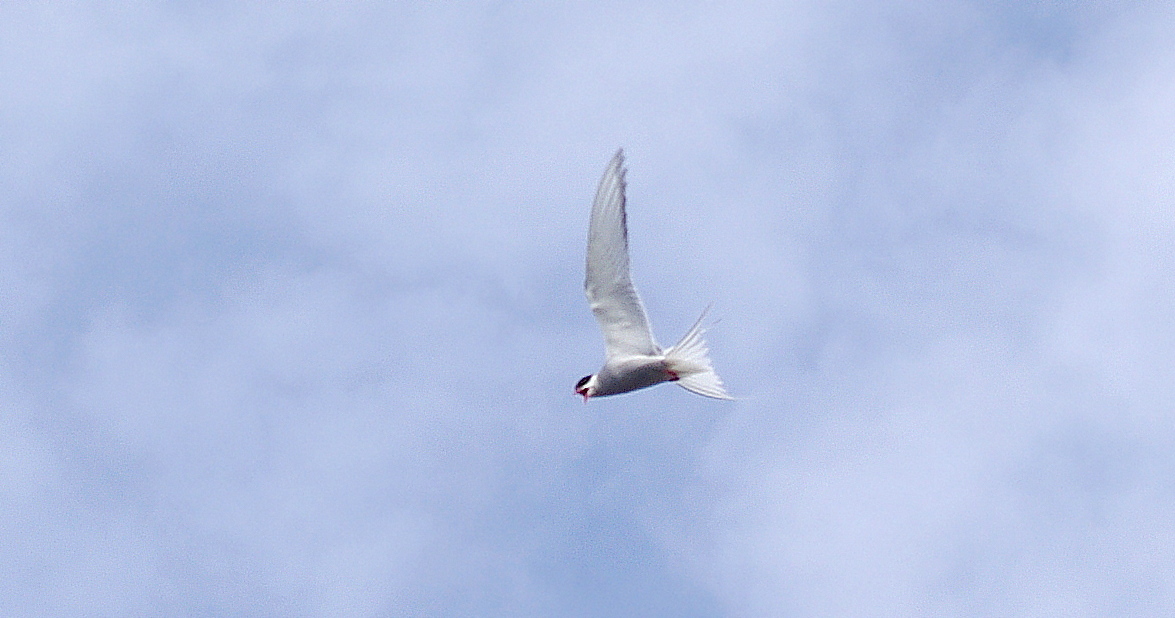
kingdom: Animalia
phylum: Chordata
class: Aves
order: Charadriiformes
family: Laridae
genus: Sterna
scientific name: Sterna paradisaea
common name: Arctic tern
